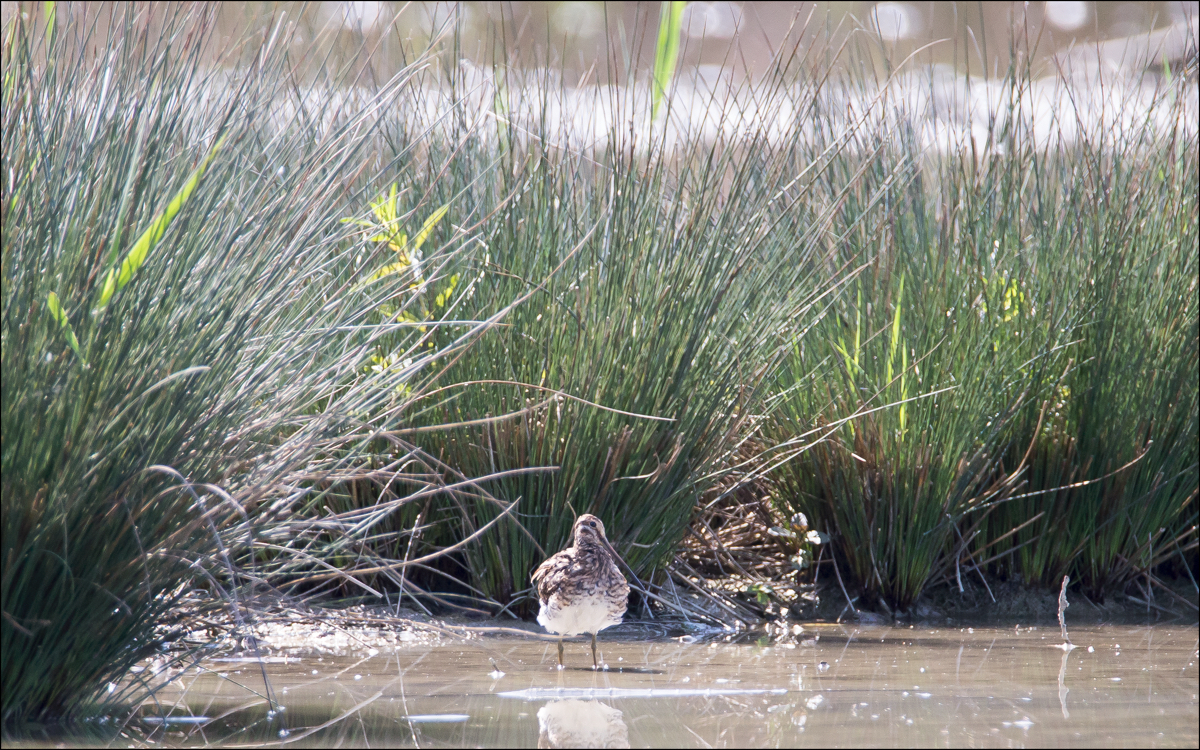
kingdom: Animalia
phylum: Chordata
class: Aves
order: Charadriiformes
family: Scolopacidae
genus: Gallinago
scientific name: Gallinago gallinago
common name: Common snipe
